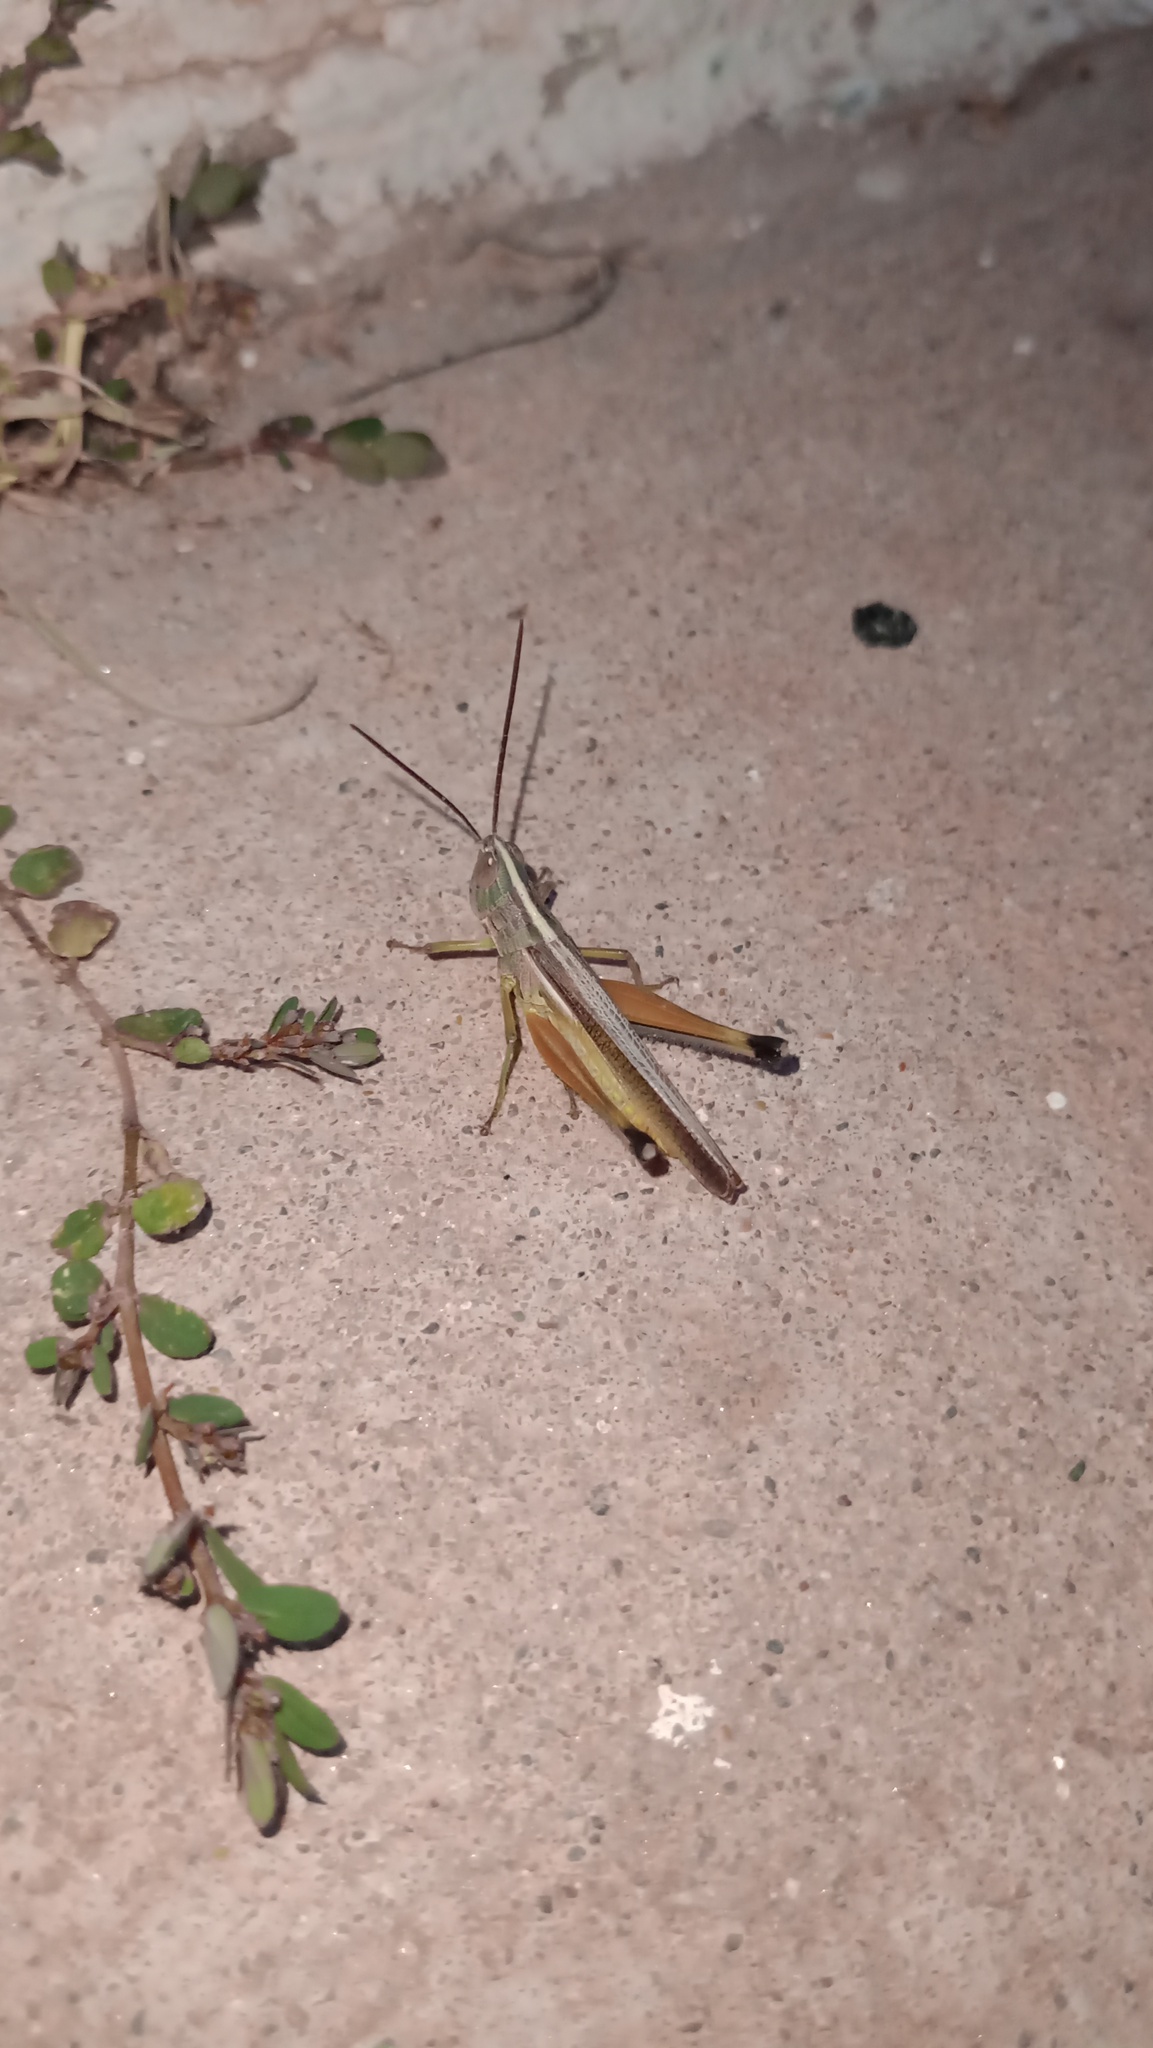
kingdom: Animalia
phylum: Arthropoda
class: Insecta
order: Orthoptera
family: Acrididae
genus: Staurorhectus
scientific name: Staurorhectus longicornis
